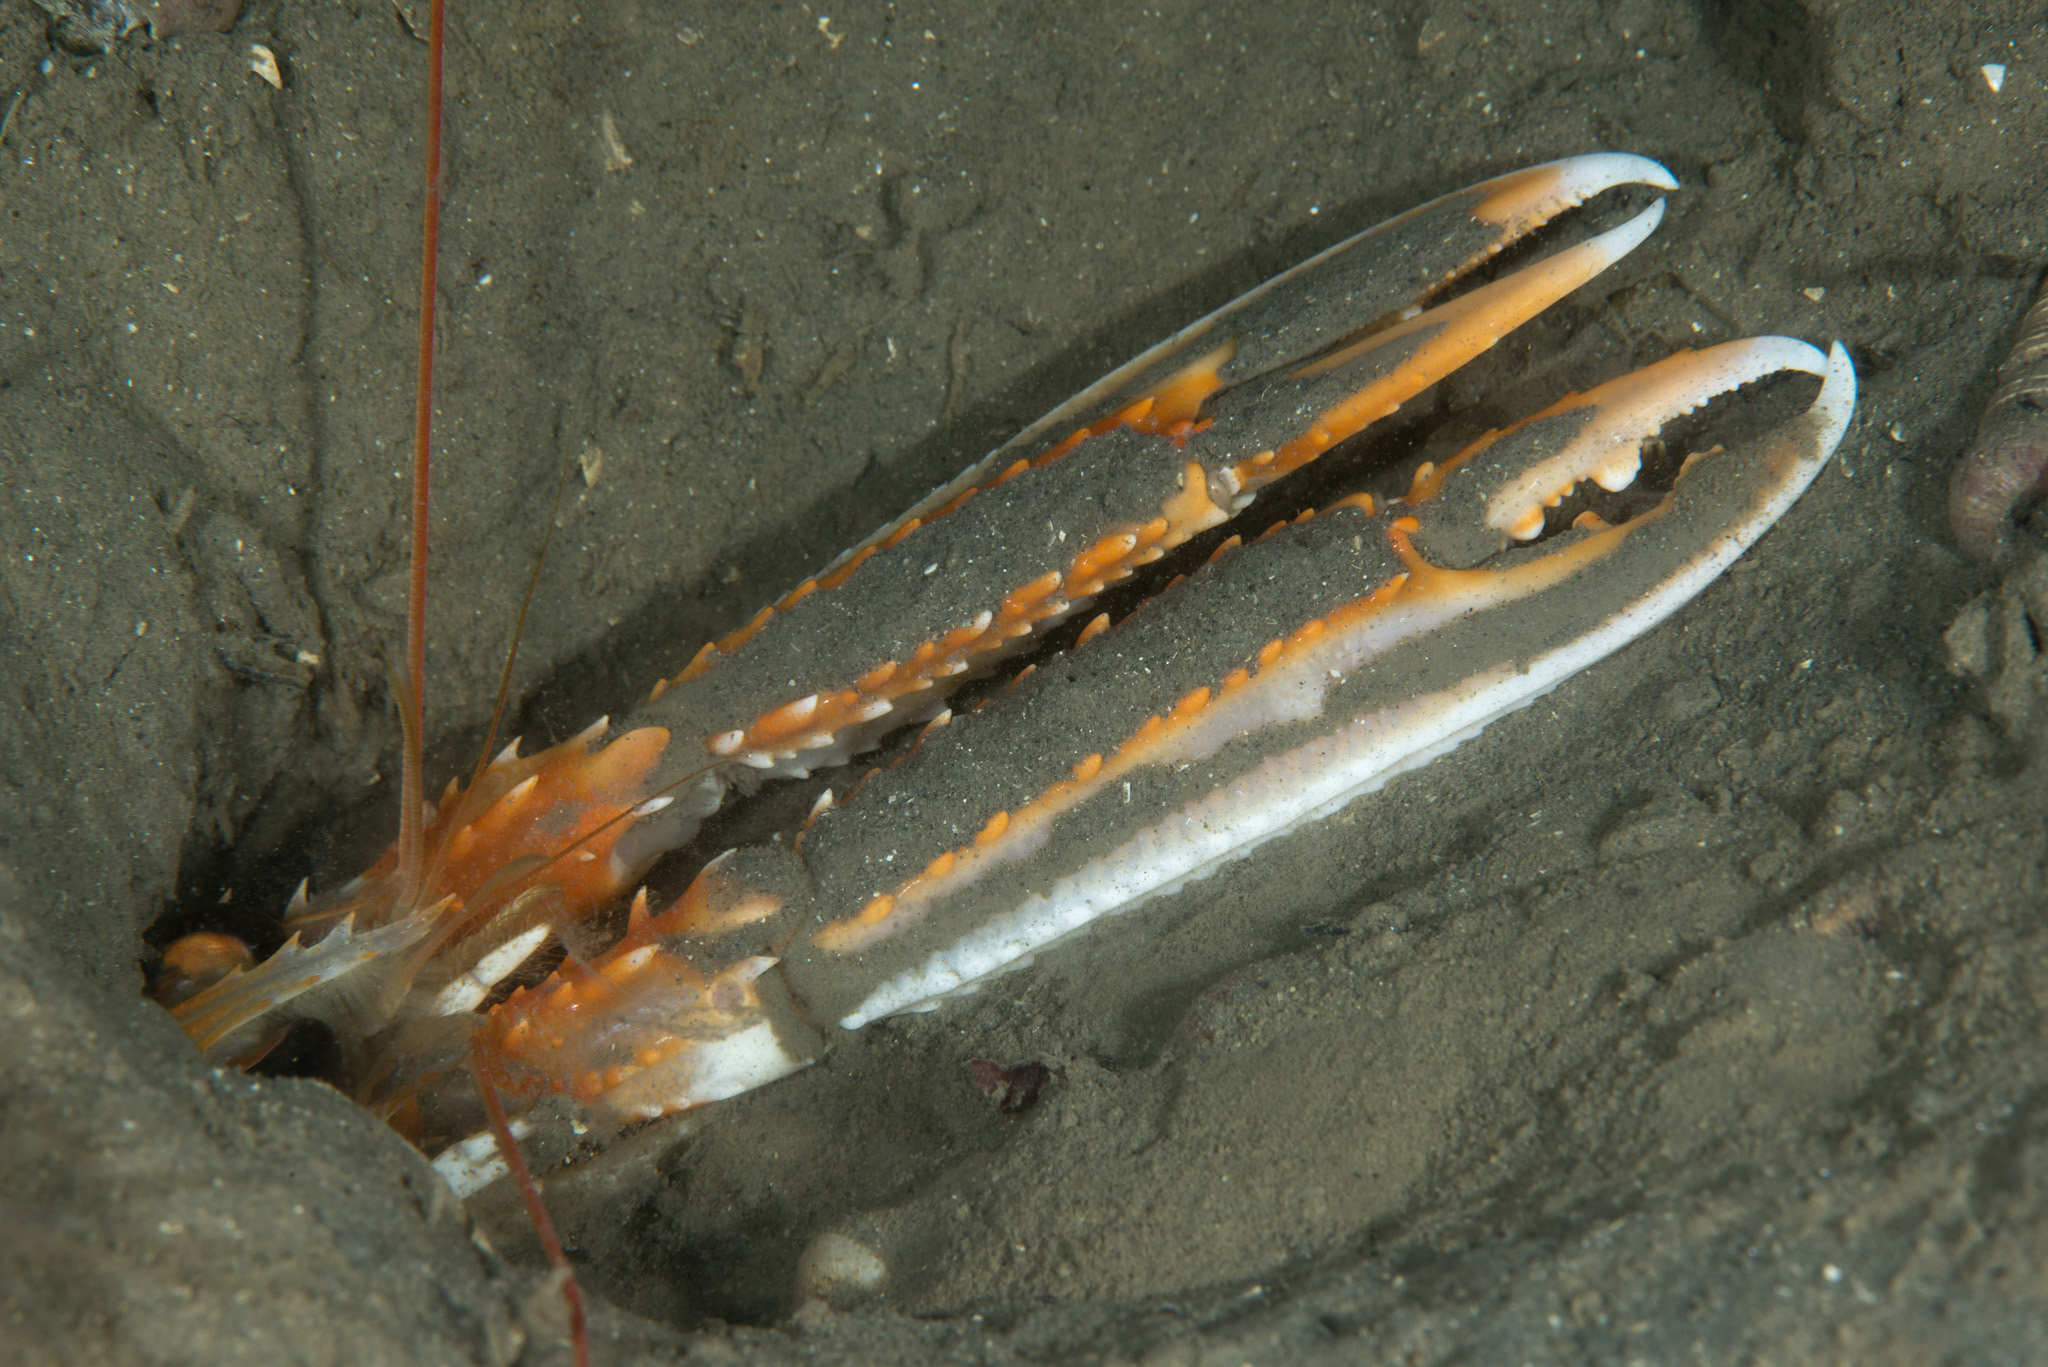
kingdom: Animalia
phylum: Arthropoda
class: Malacostraca
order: Decapoda
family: Nephropidae
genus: Nephrops
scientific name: Nephrops norvegicus
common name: Norway lobster
